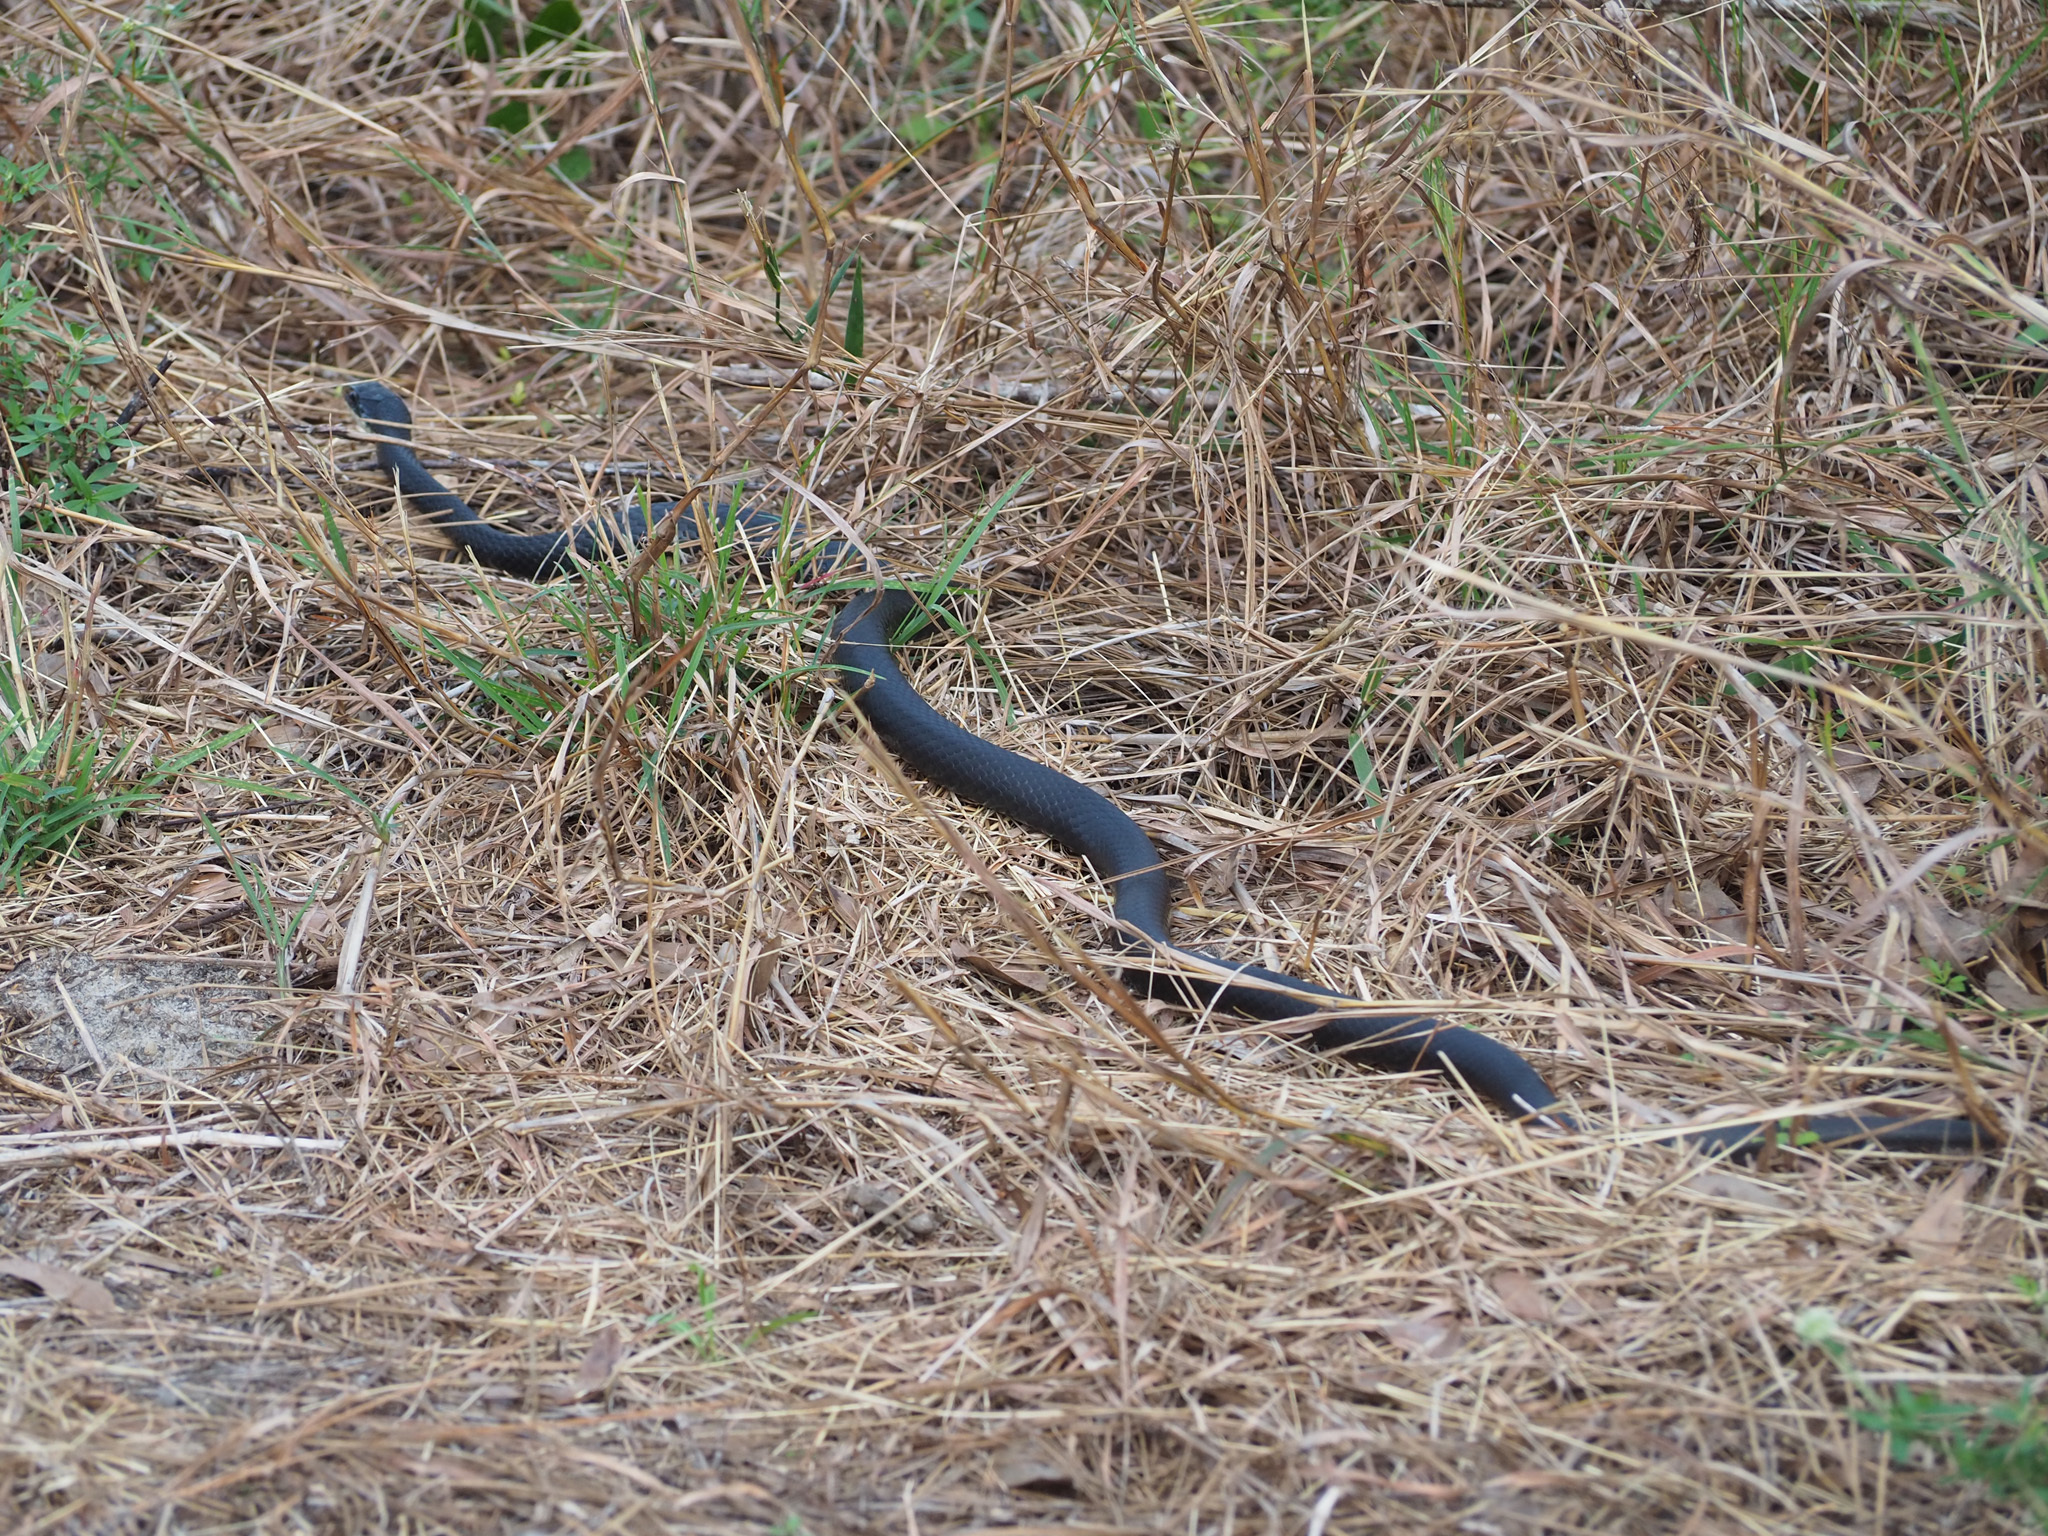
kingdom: Animalia
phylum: Chordata
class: Squamata
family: Colubridae
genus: Coluber
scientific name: Coluber constrictor
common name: Eastern racer
